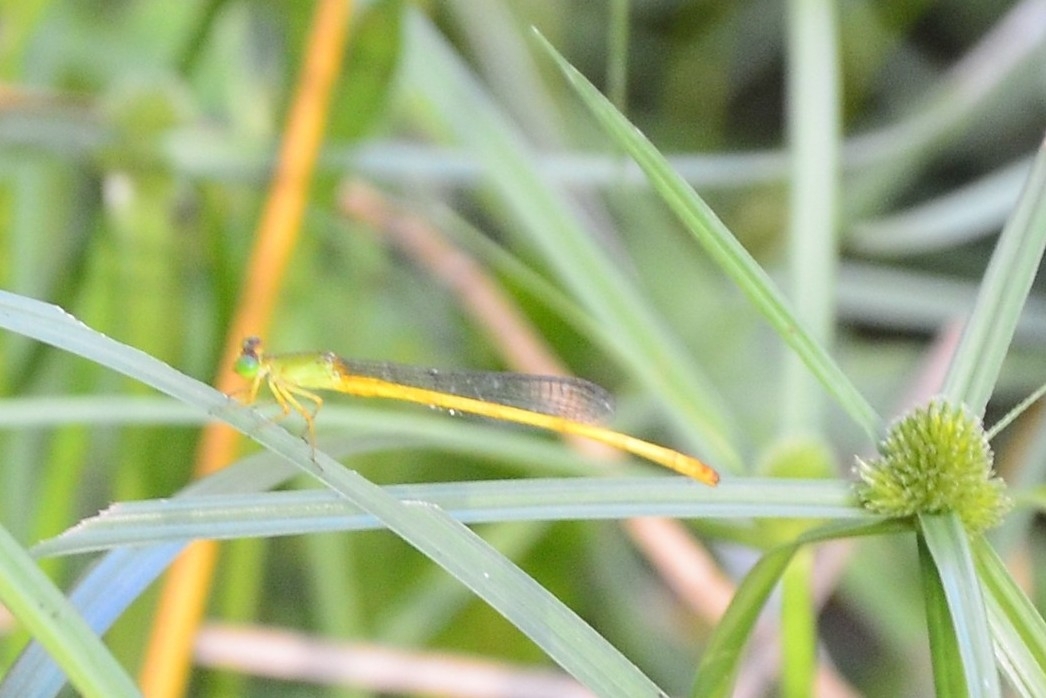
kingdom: Animalia
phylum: Arthropoda
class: Insecta
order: Odonata
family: Coenagrionidae
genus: Ceriagrion
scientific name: Ceriagrion coromandelianum
